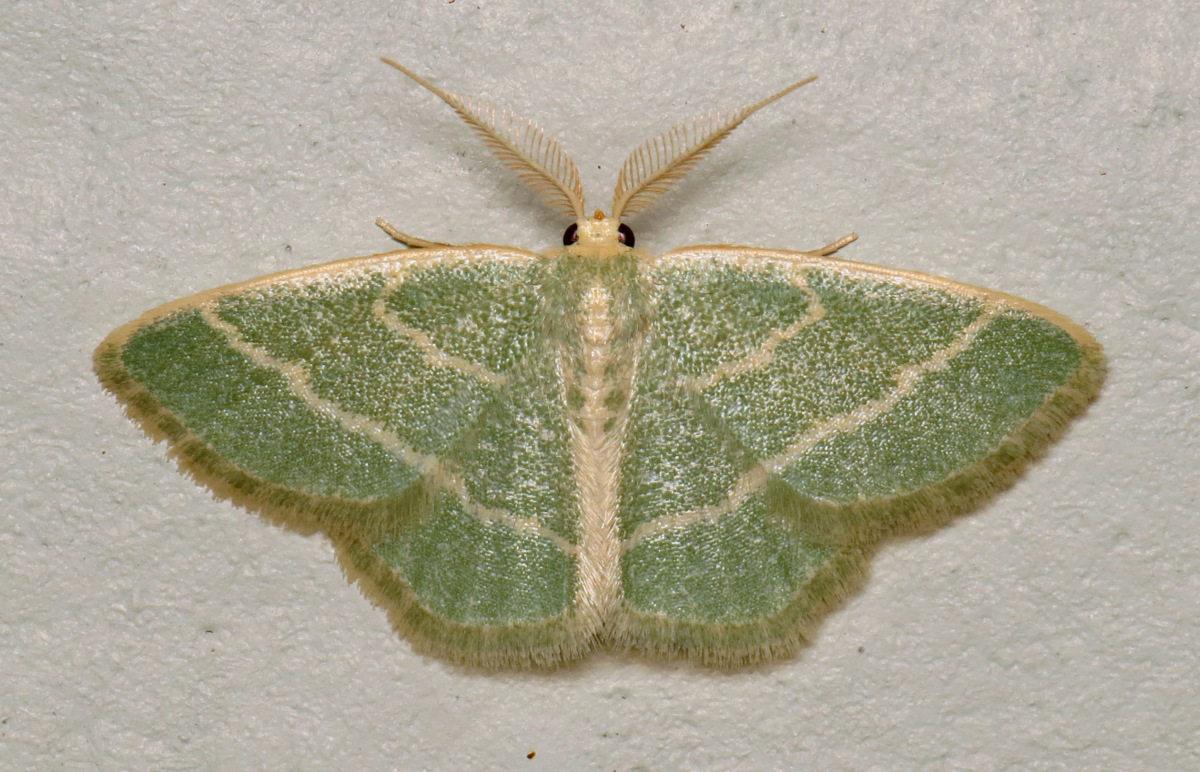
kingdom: Animalia
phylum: Arthropoda
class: Insecta
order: Lepidoptera
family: Geometridae
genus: Chlorochlamys
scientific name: Chlorochlamys chloroleucaria
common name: Blackberry looper
